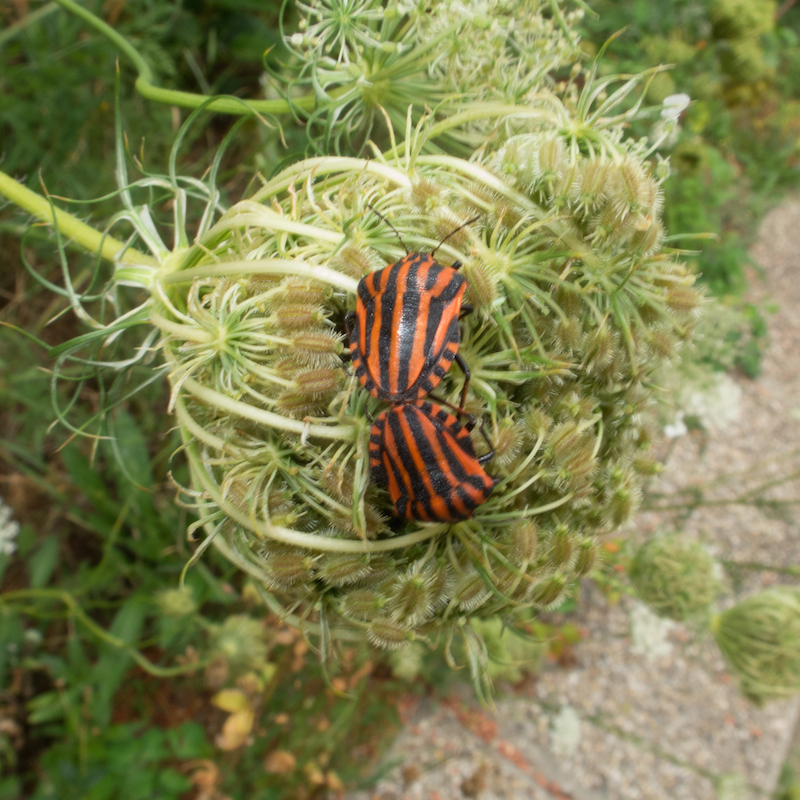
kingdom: Animalia
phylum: Arthropoda
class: Insecta
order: Hemiptera
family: Pentatomidae
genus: Graphosoma
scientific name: Graphosoma italicum
